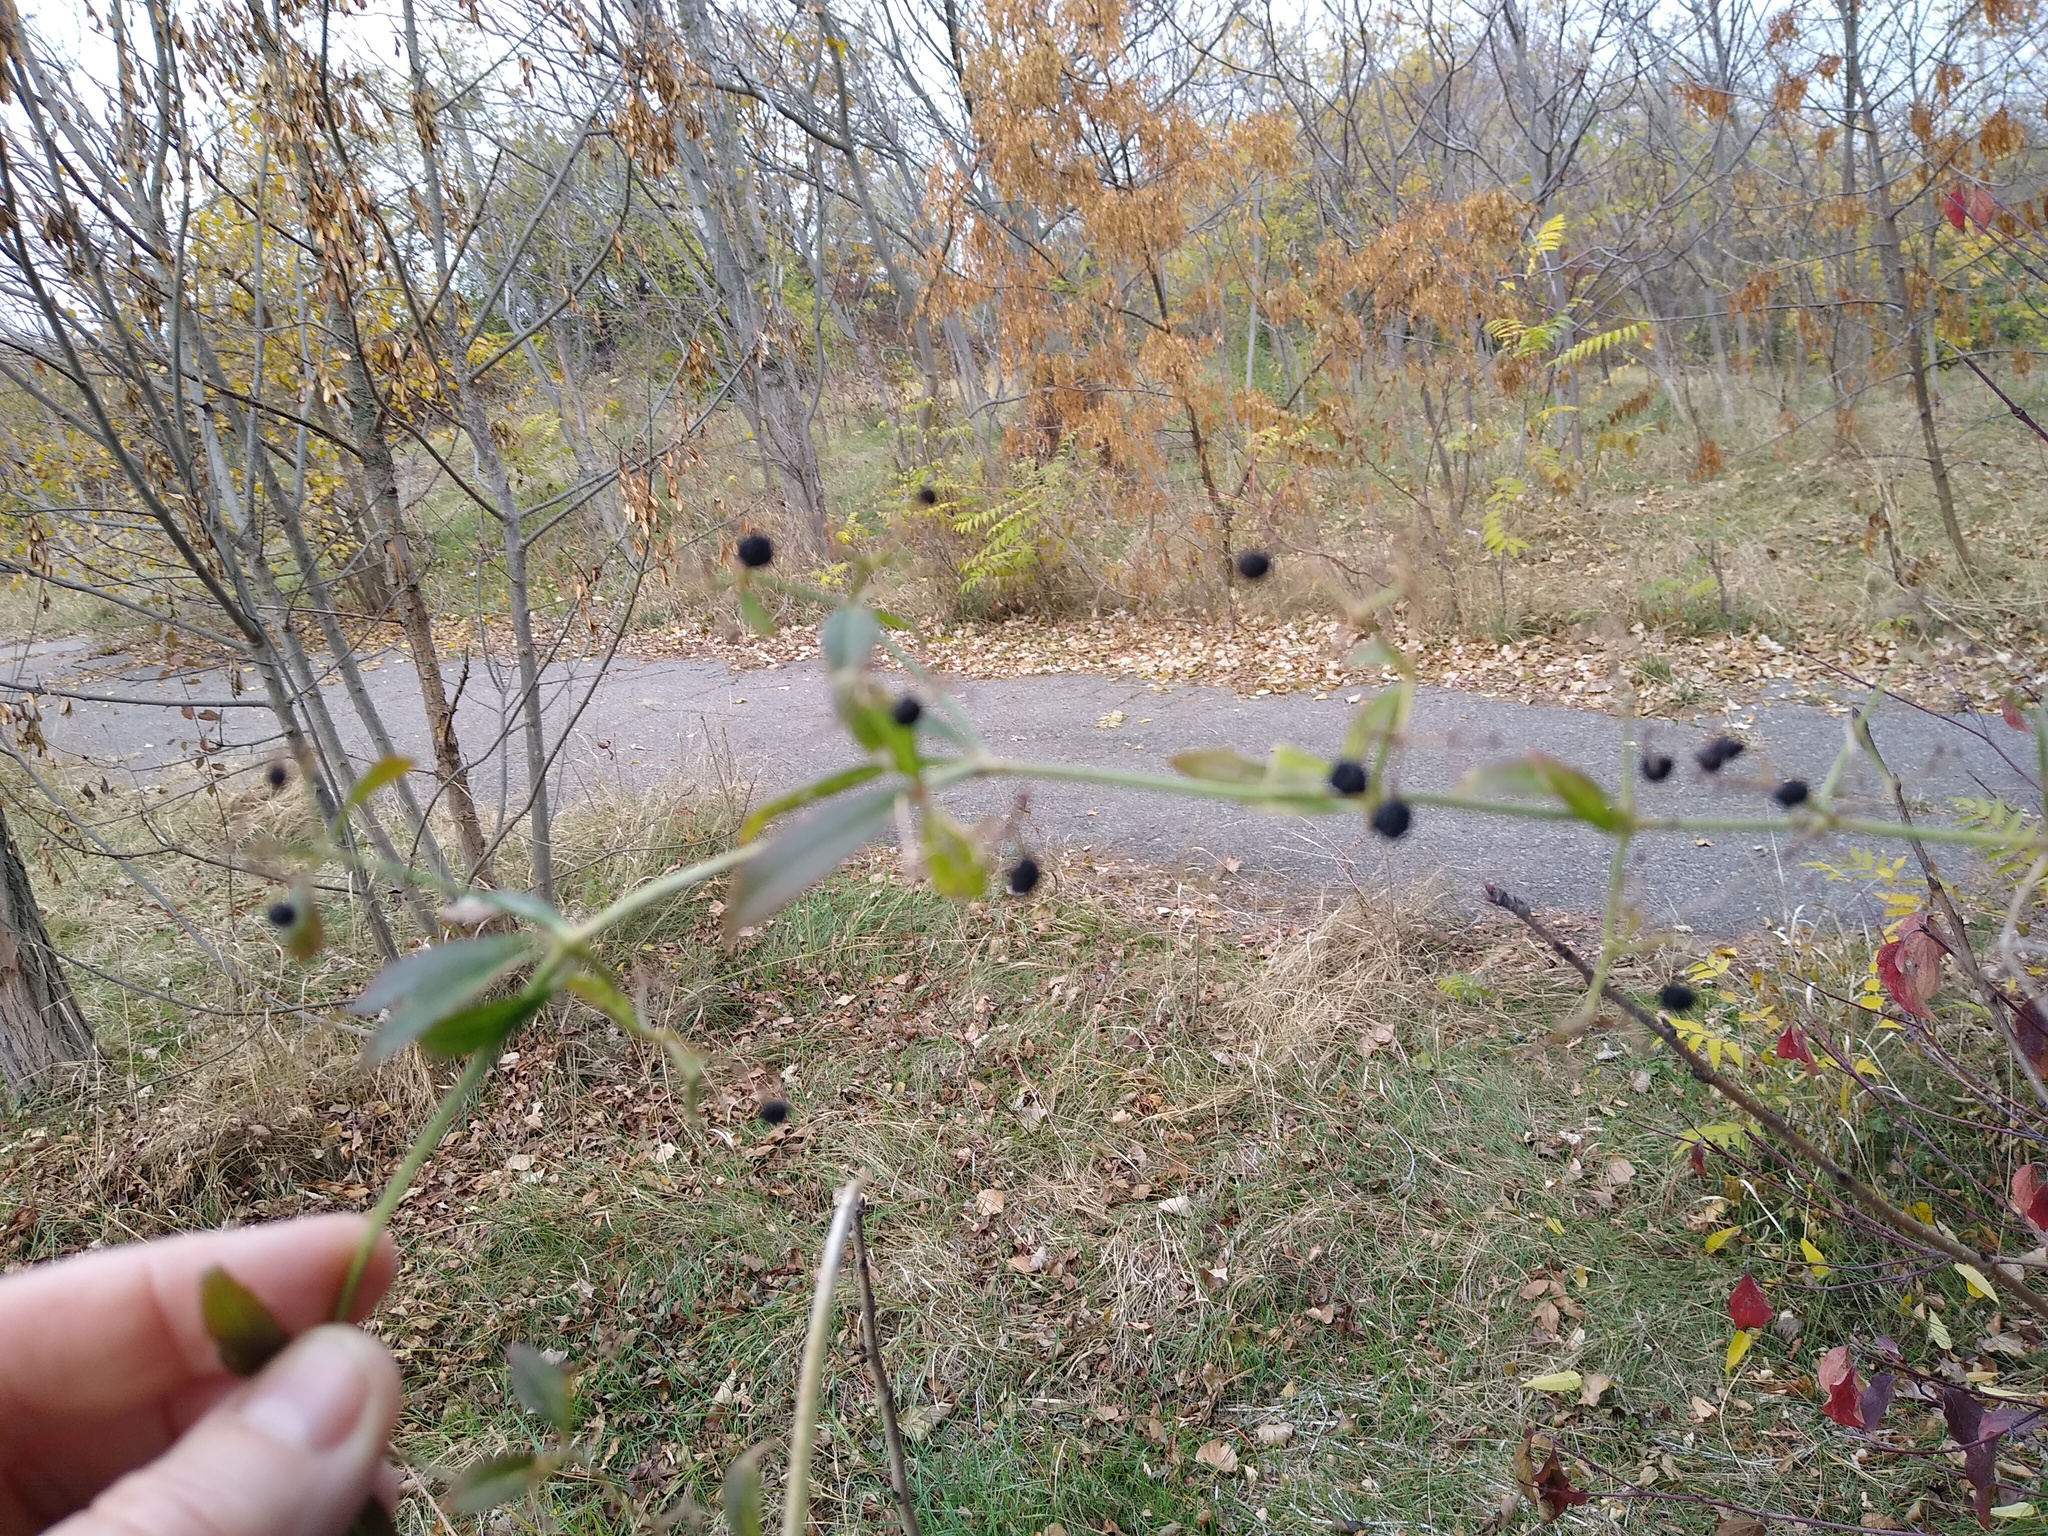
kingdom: Plantae
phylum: Tracheophyta
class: Magnoliopsida
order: Gentianales
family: Rubiaceae
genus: Rubia
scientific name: Rubia tinctorum
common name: Dyer's madder
